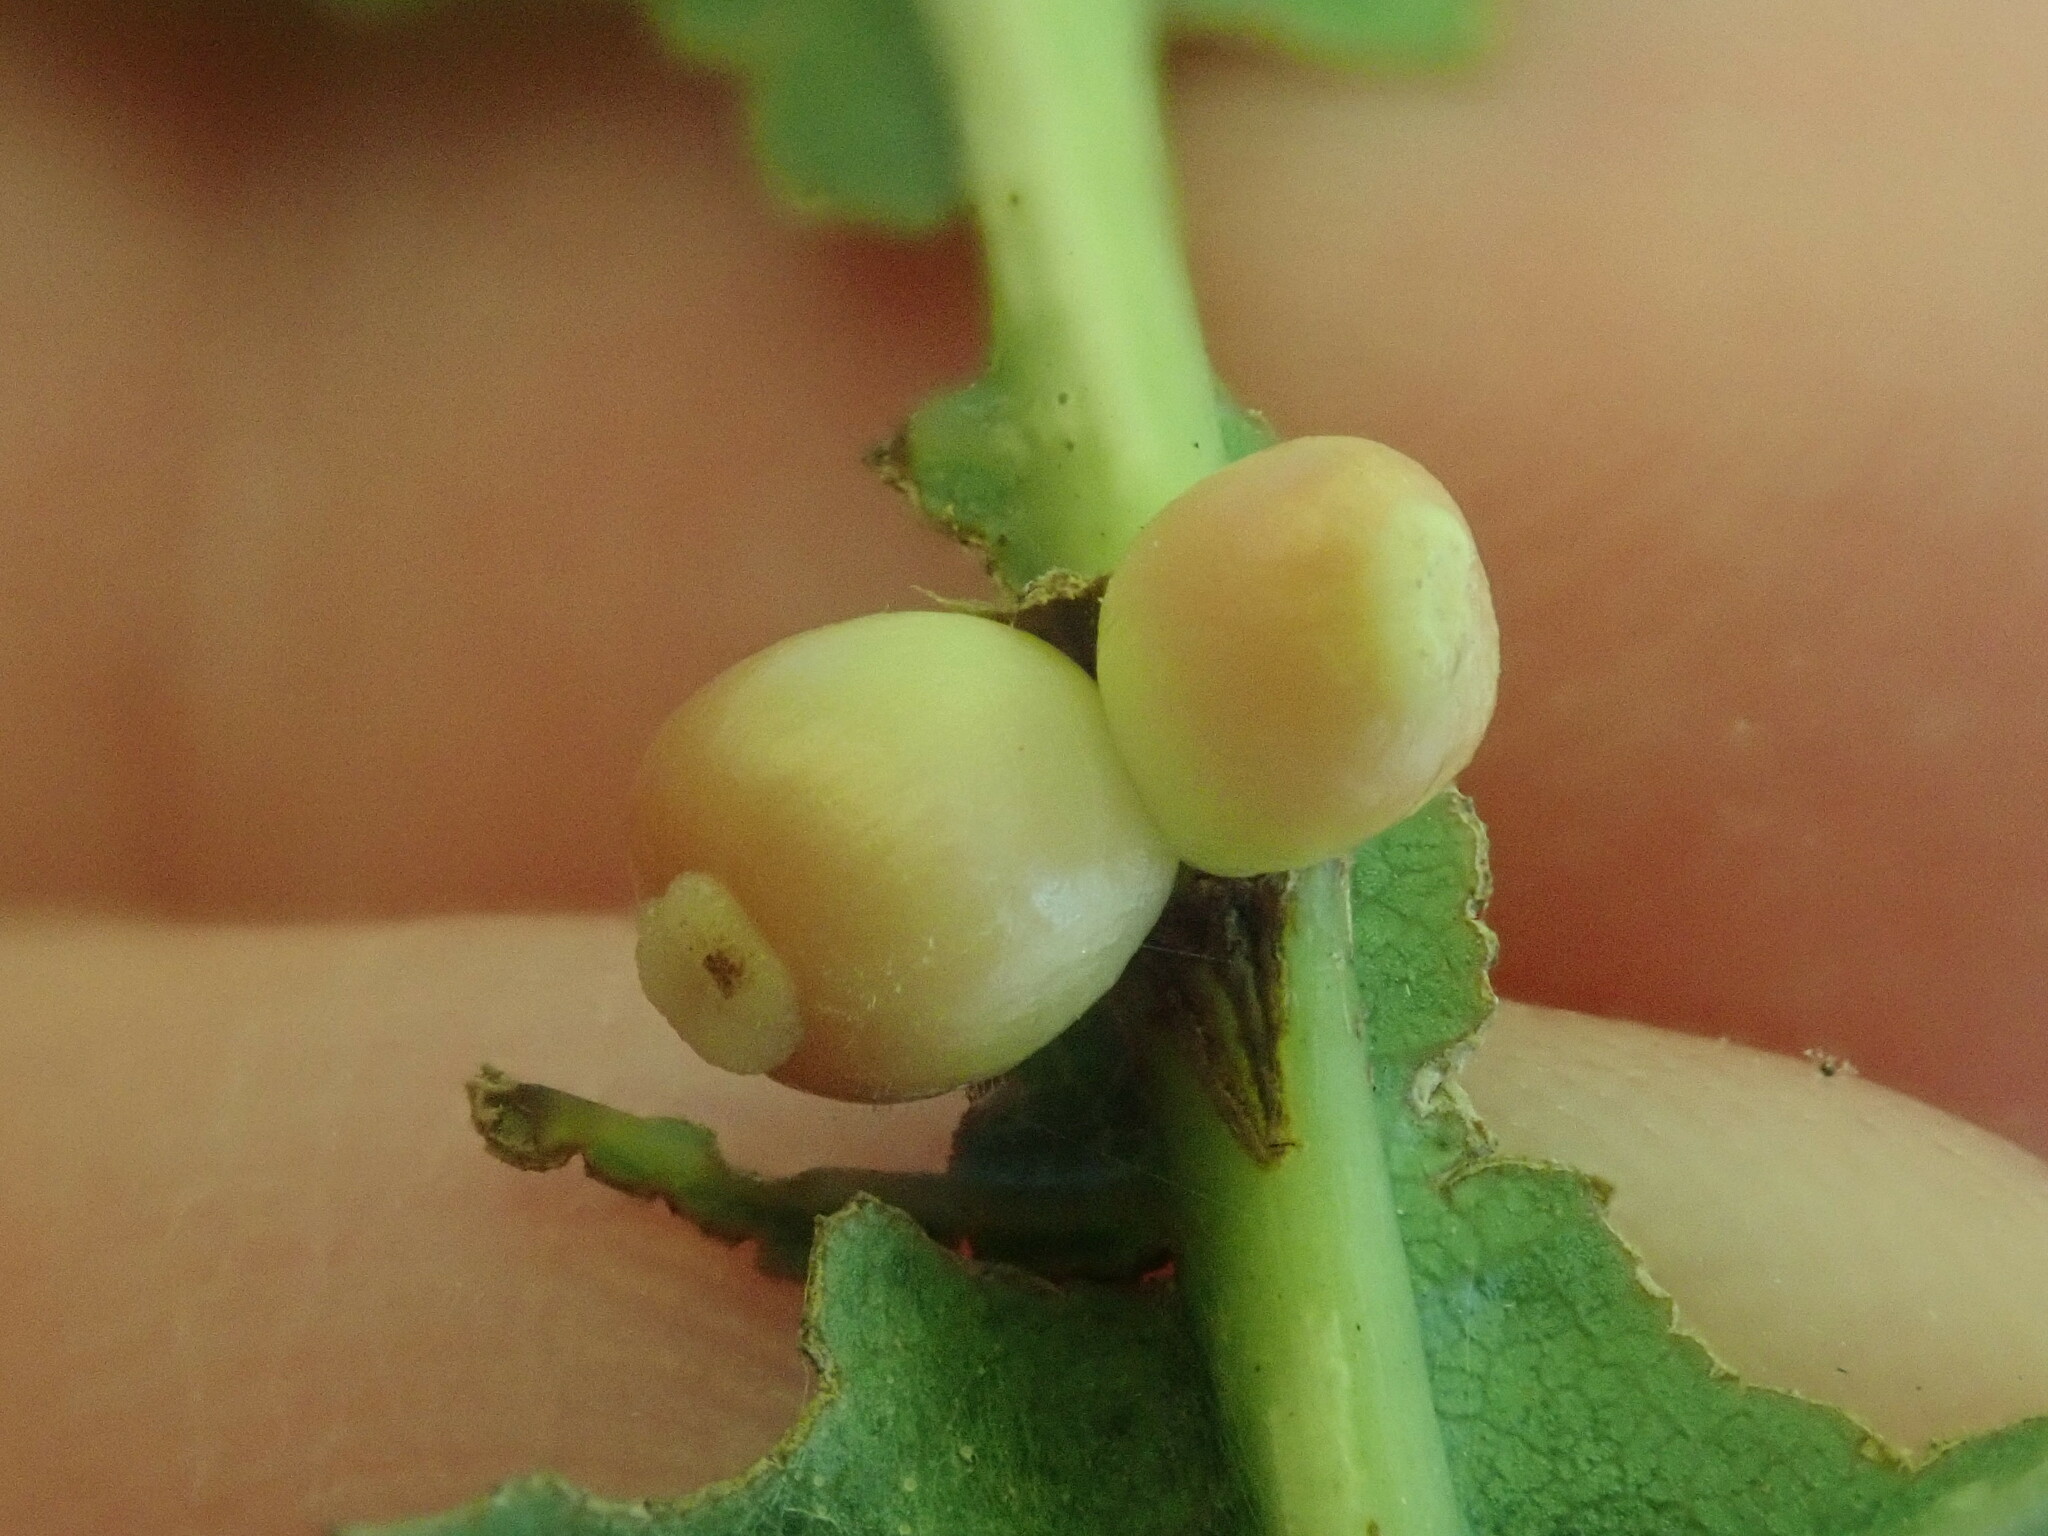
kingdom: Animalia
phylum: Arthropoda
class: Insecta
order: Hymenoptera
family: Cynipidae
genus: Kokkocynips
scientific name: Kokkocynips decidua
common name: Oak wheat gall
